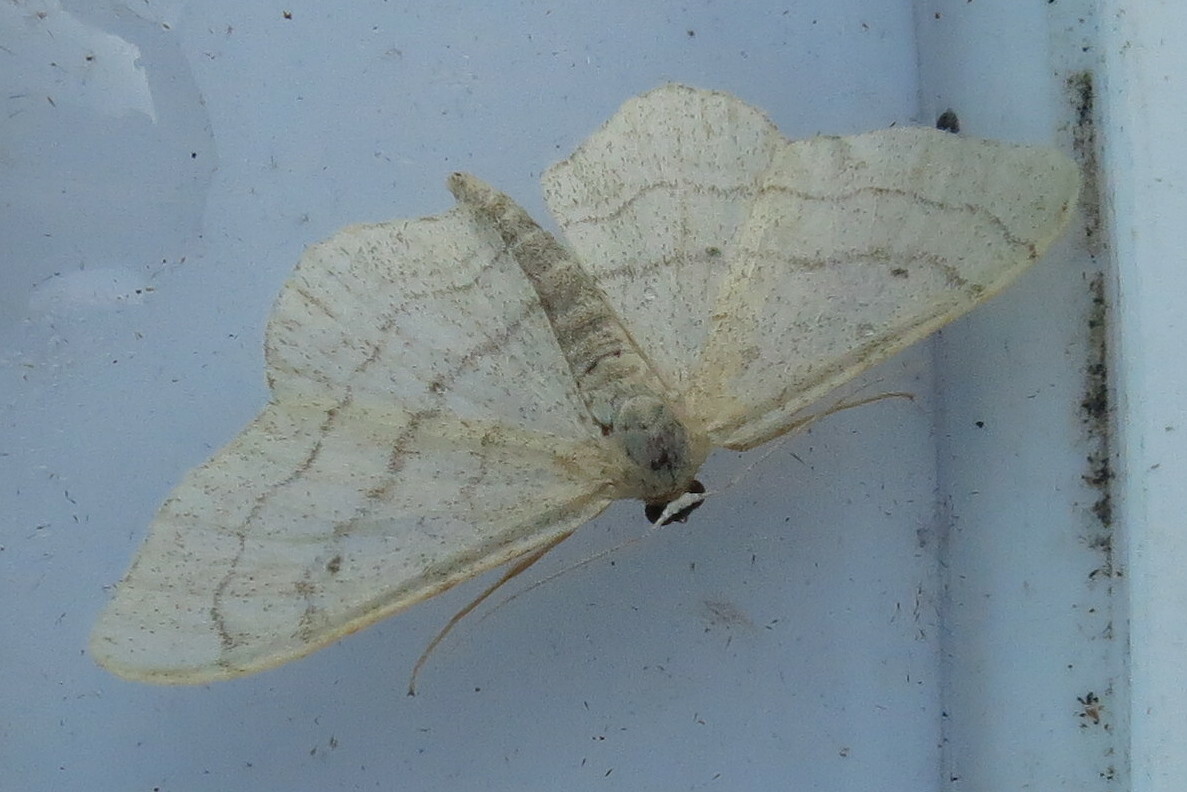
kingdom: Animalia
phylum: Arthropoda
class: Insecta
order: Lepidoptera
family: Geometridae
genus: Idaea
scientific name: Idaea aversata
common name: Riband wave
